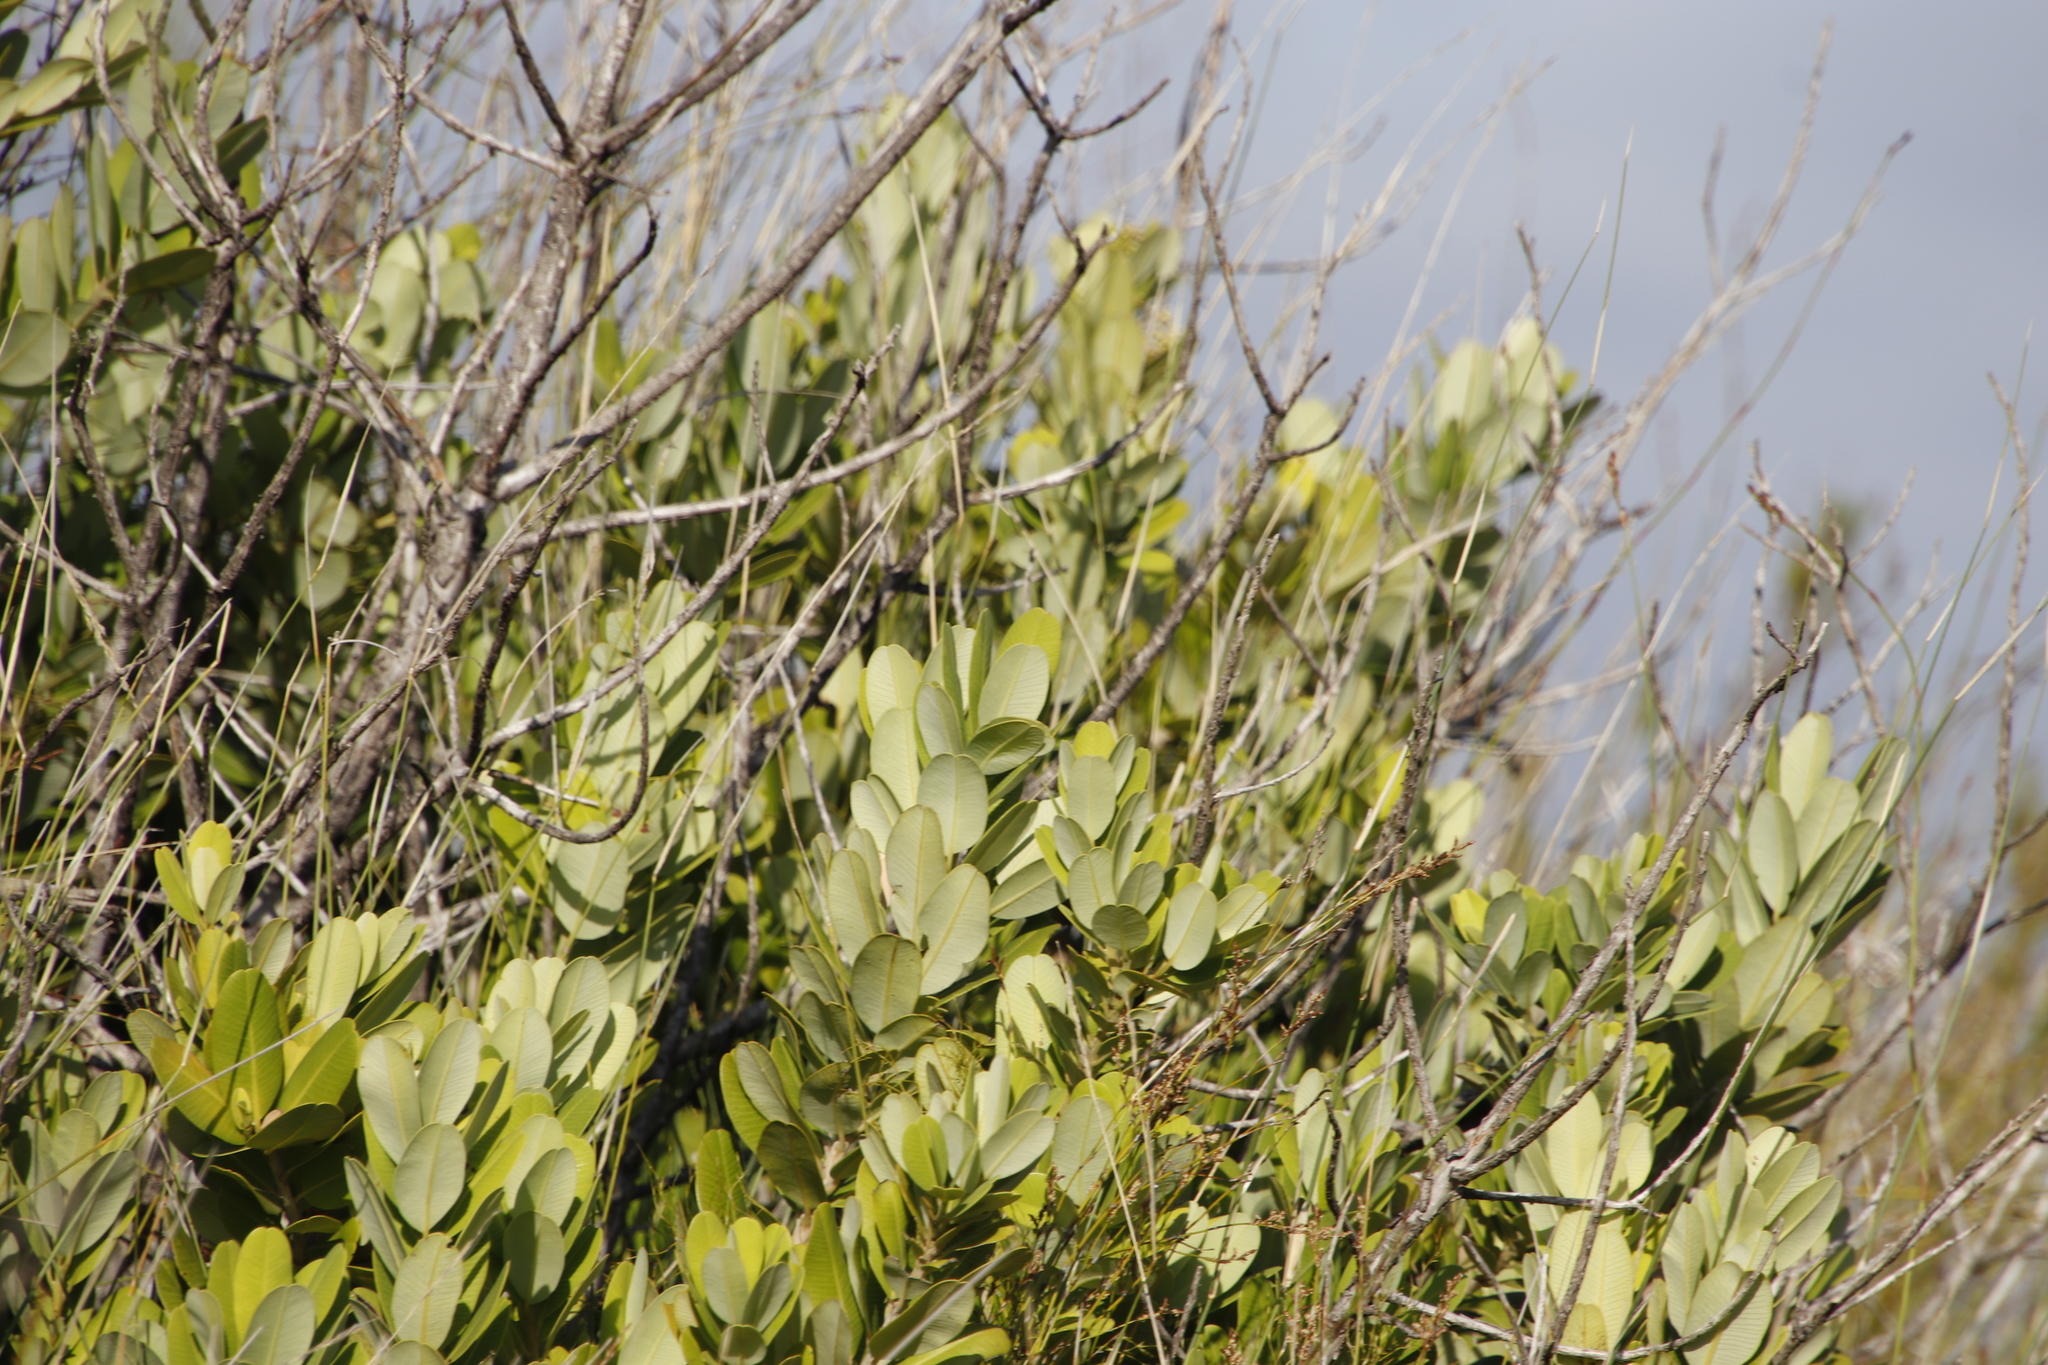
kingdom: Plantae
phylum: Tracheophyta
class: Magnoliopsida
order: Sapindales
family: Anacardiaceae
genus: Heeria
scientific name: Heeria argentea
